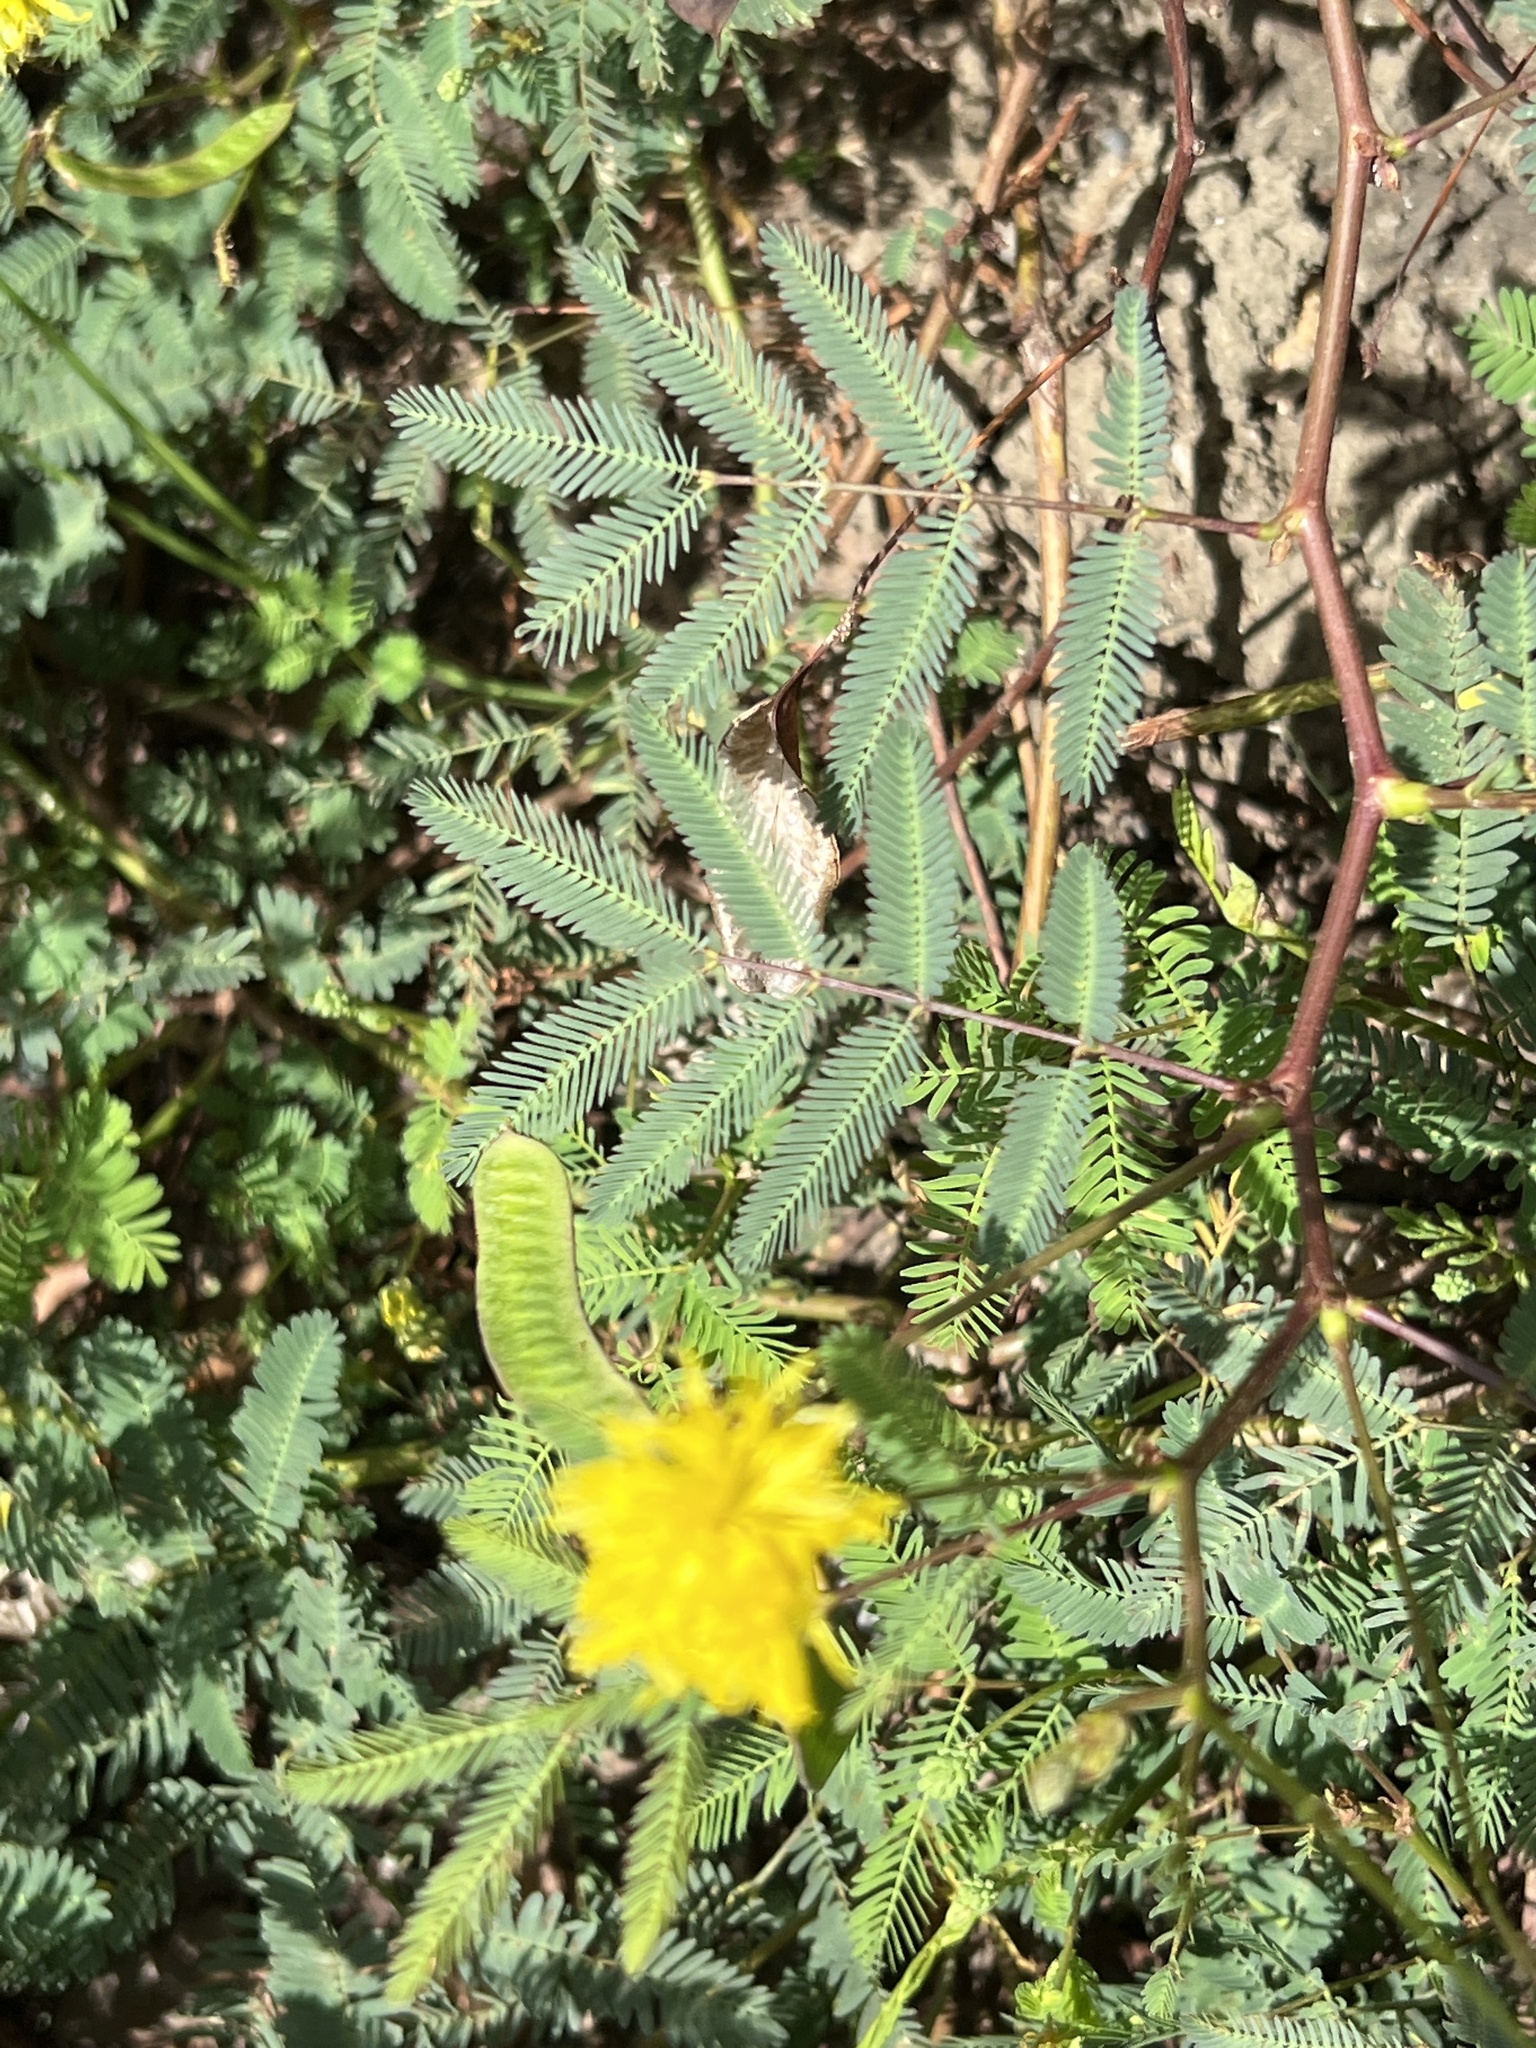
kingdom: Plantae
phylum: Tracheophyta
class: Magnoliopsida
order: Fabales
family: Fabaceae
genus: Neptunia
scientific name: Neptunia prostrata
